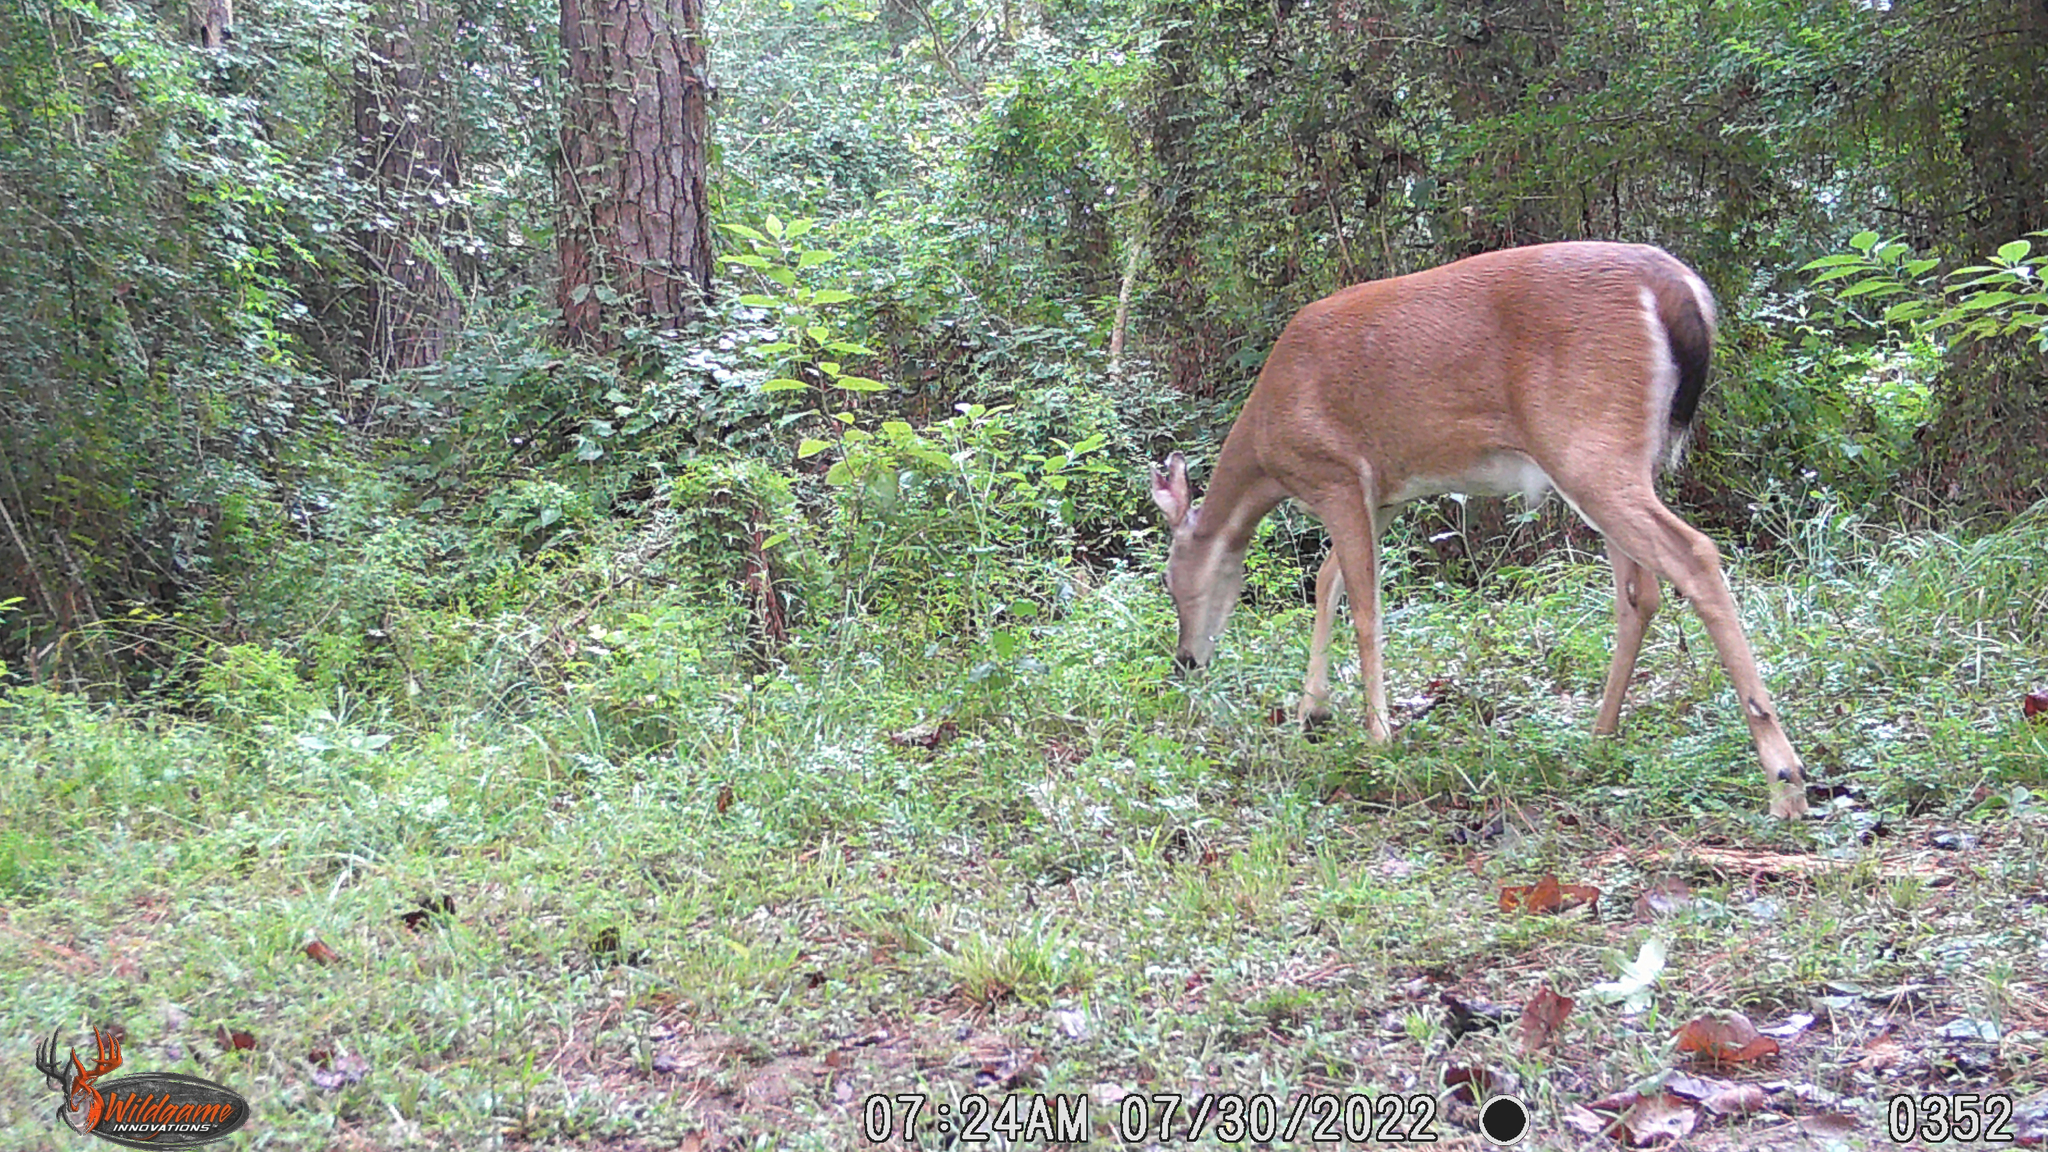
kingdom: Animalia
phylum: Chordata
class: Mammalia
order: Artiodactyla
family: Cervidae
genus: Odocoileus
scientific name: Odocoileus virginianus
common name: White-tailed deer
